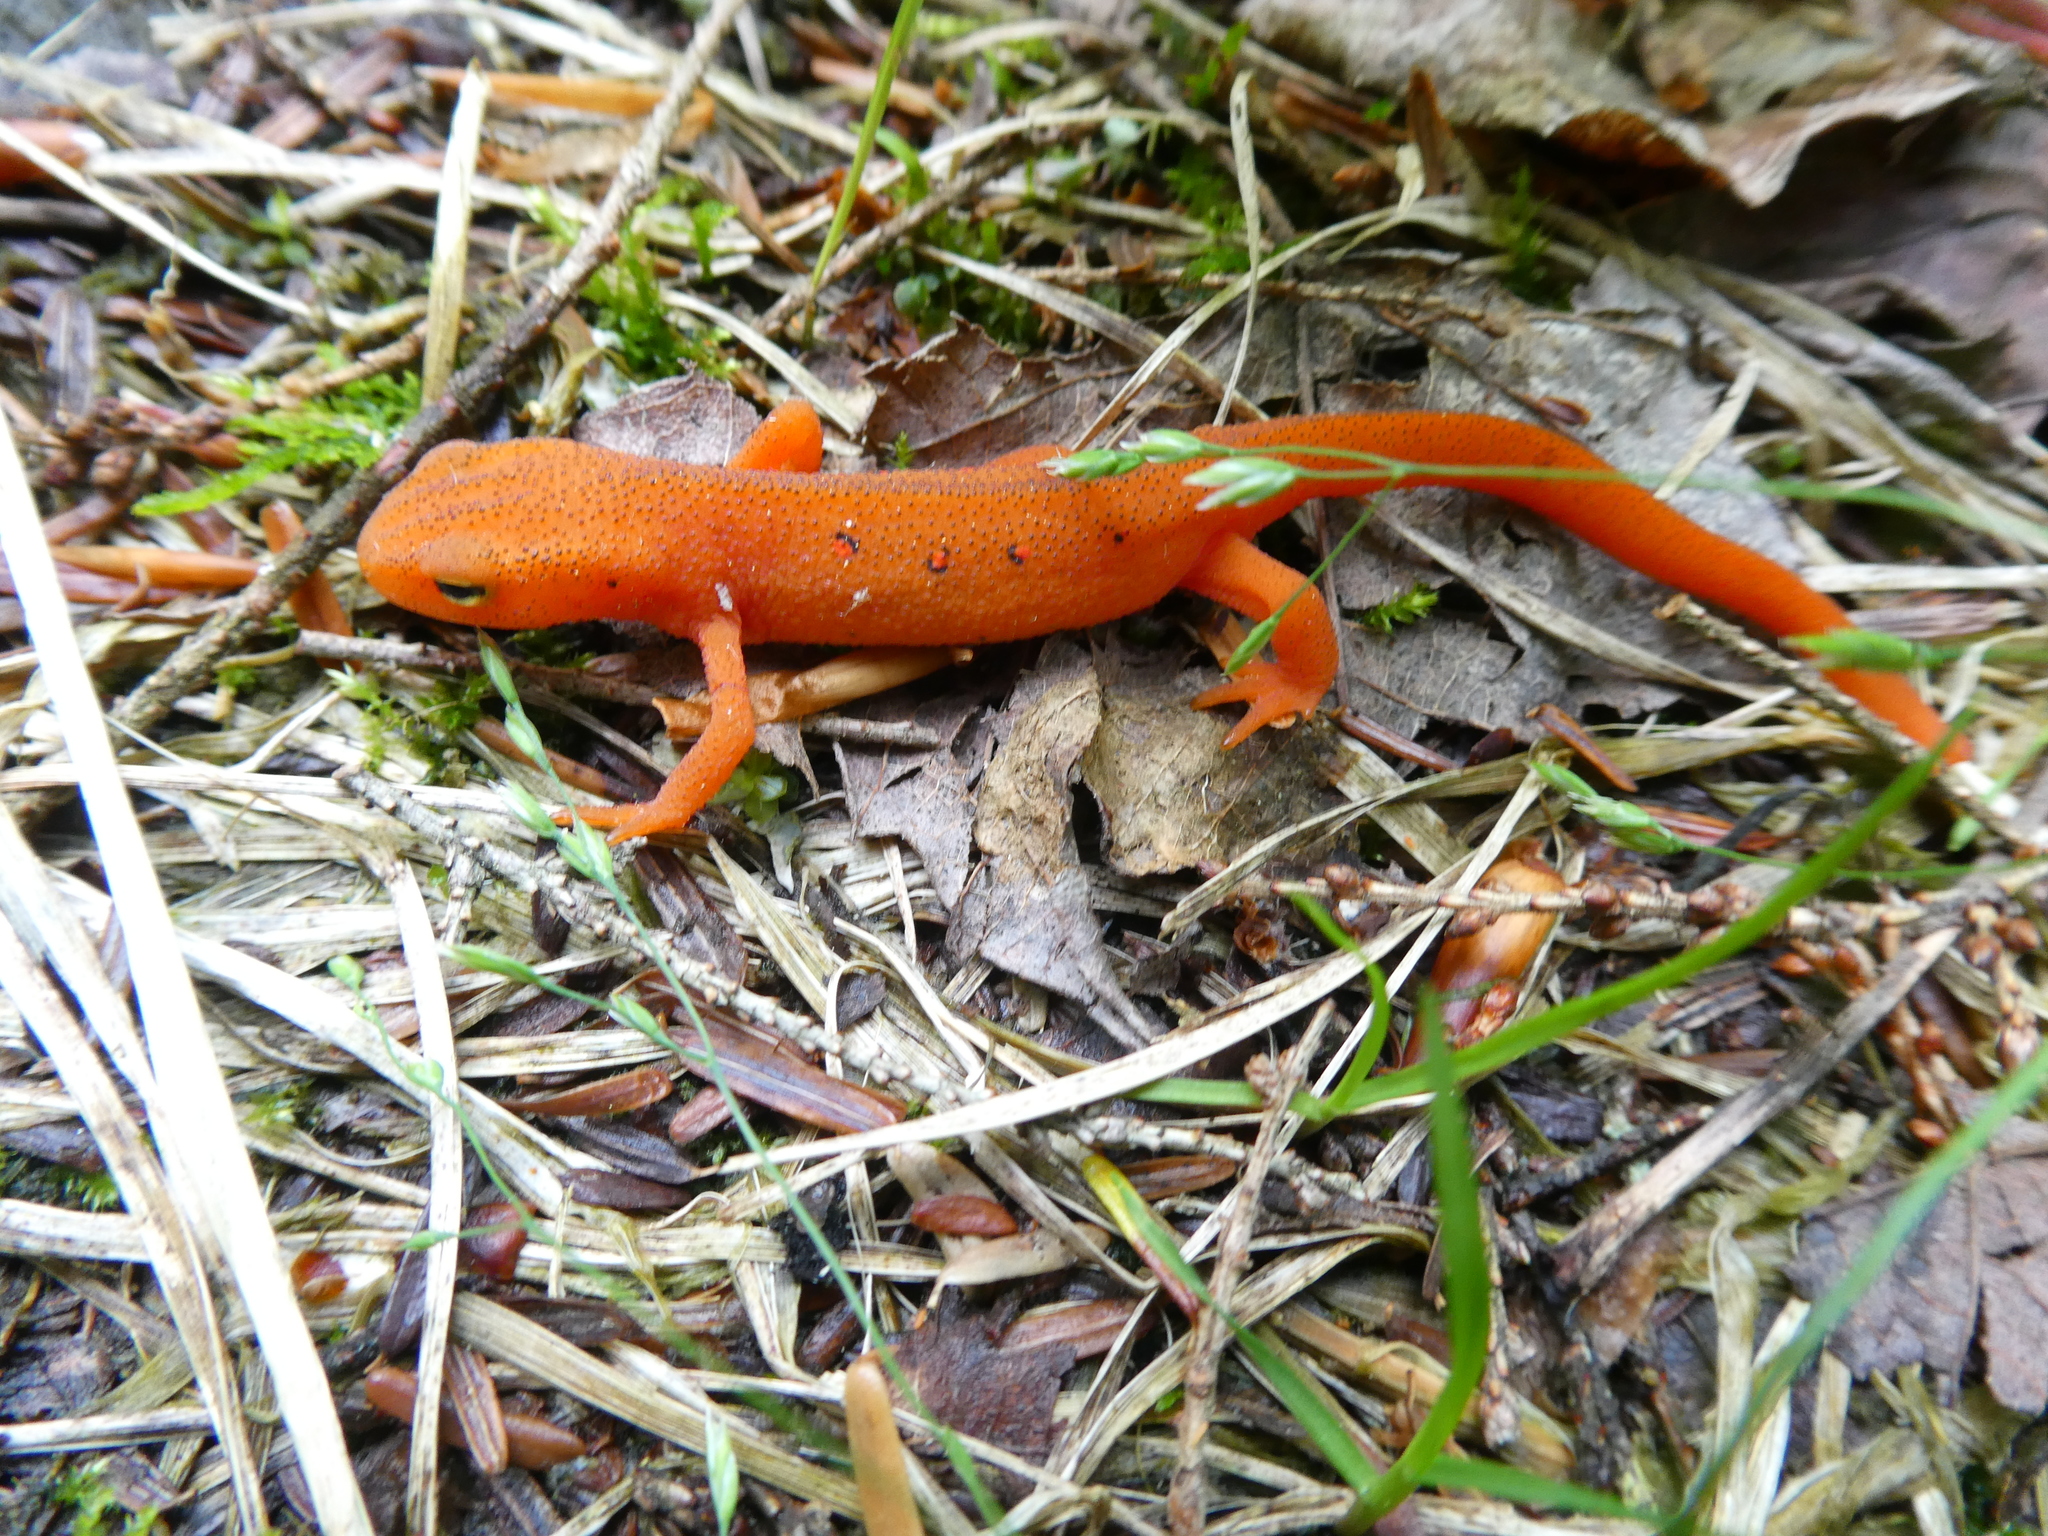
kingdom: Animalia
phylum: Chordata
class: Amphibia
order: Caudata
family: Salamandridae
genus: Notophthalmus
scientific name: Notophthalmus viridescens
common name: Eastern newt
